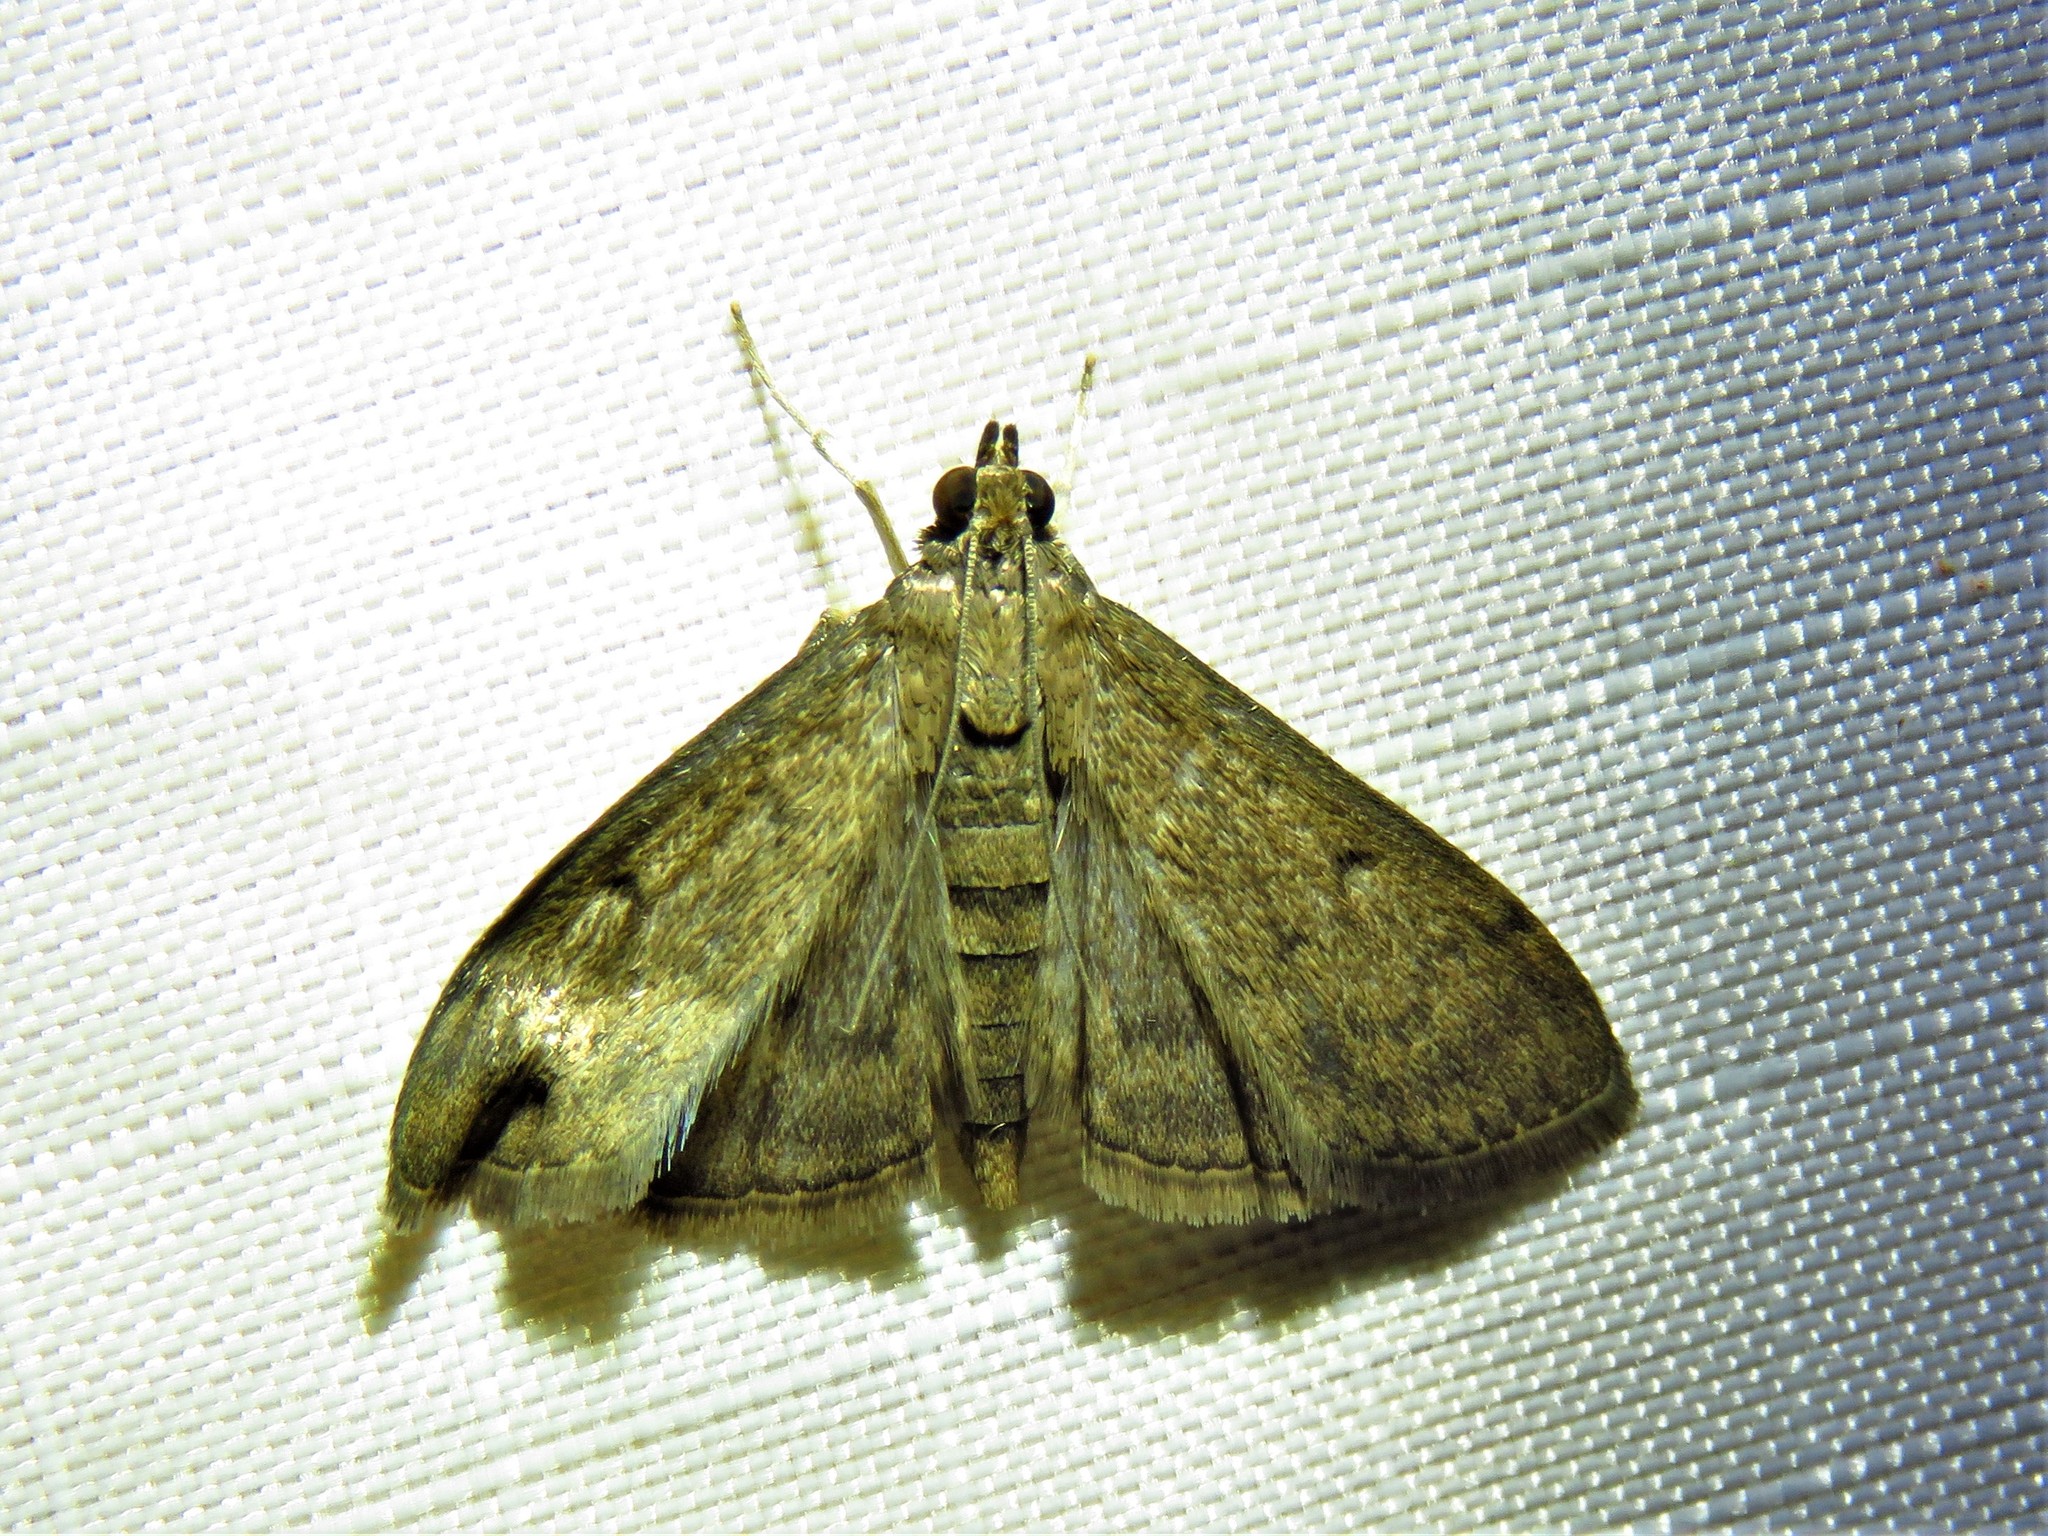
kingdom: Animalia
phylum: Arthropoda
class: Insecta
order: Lepidoptera
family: Crambidae
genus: Herpetogramma
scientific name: Herpetogramma phaeopteralis
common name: Dusky herpetogramma moth
